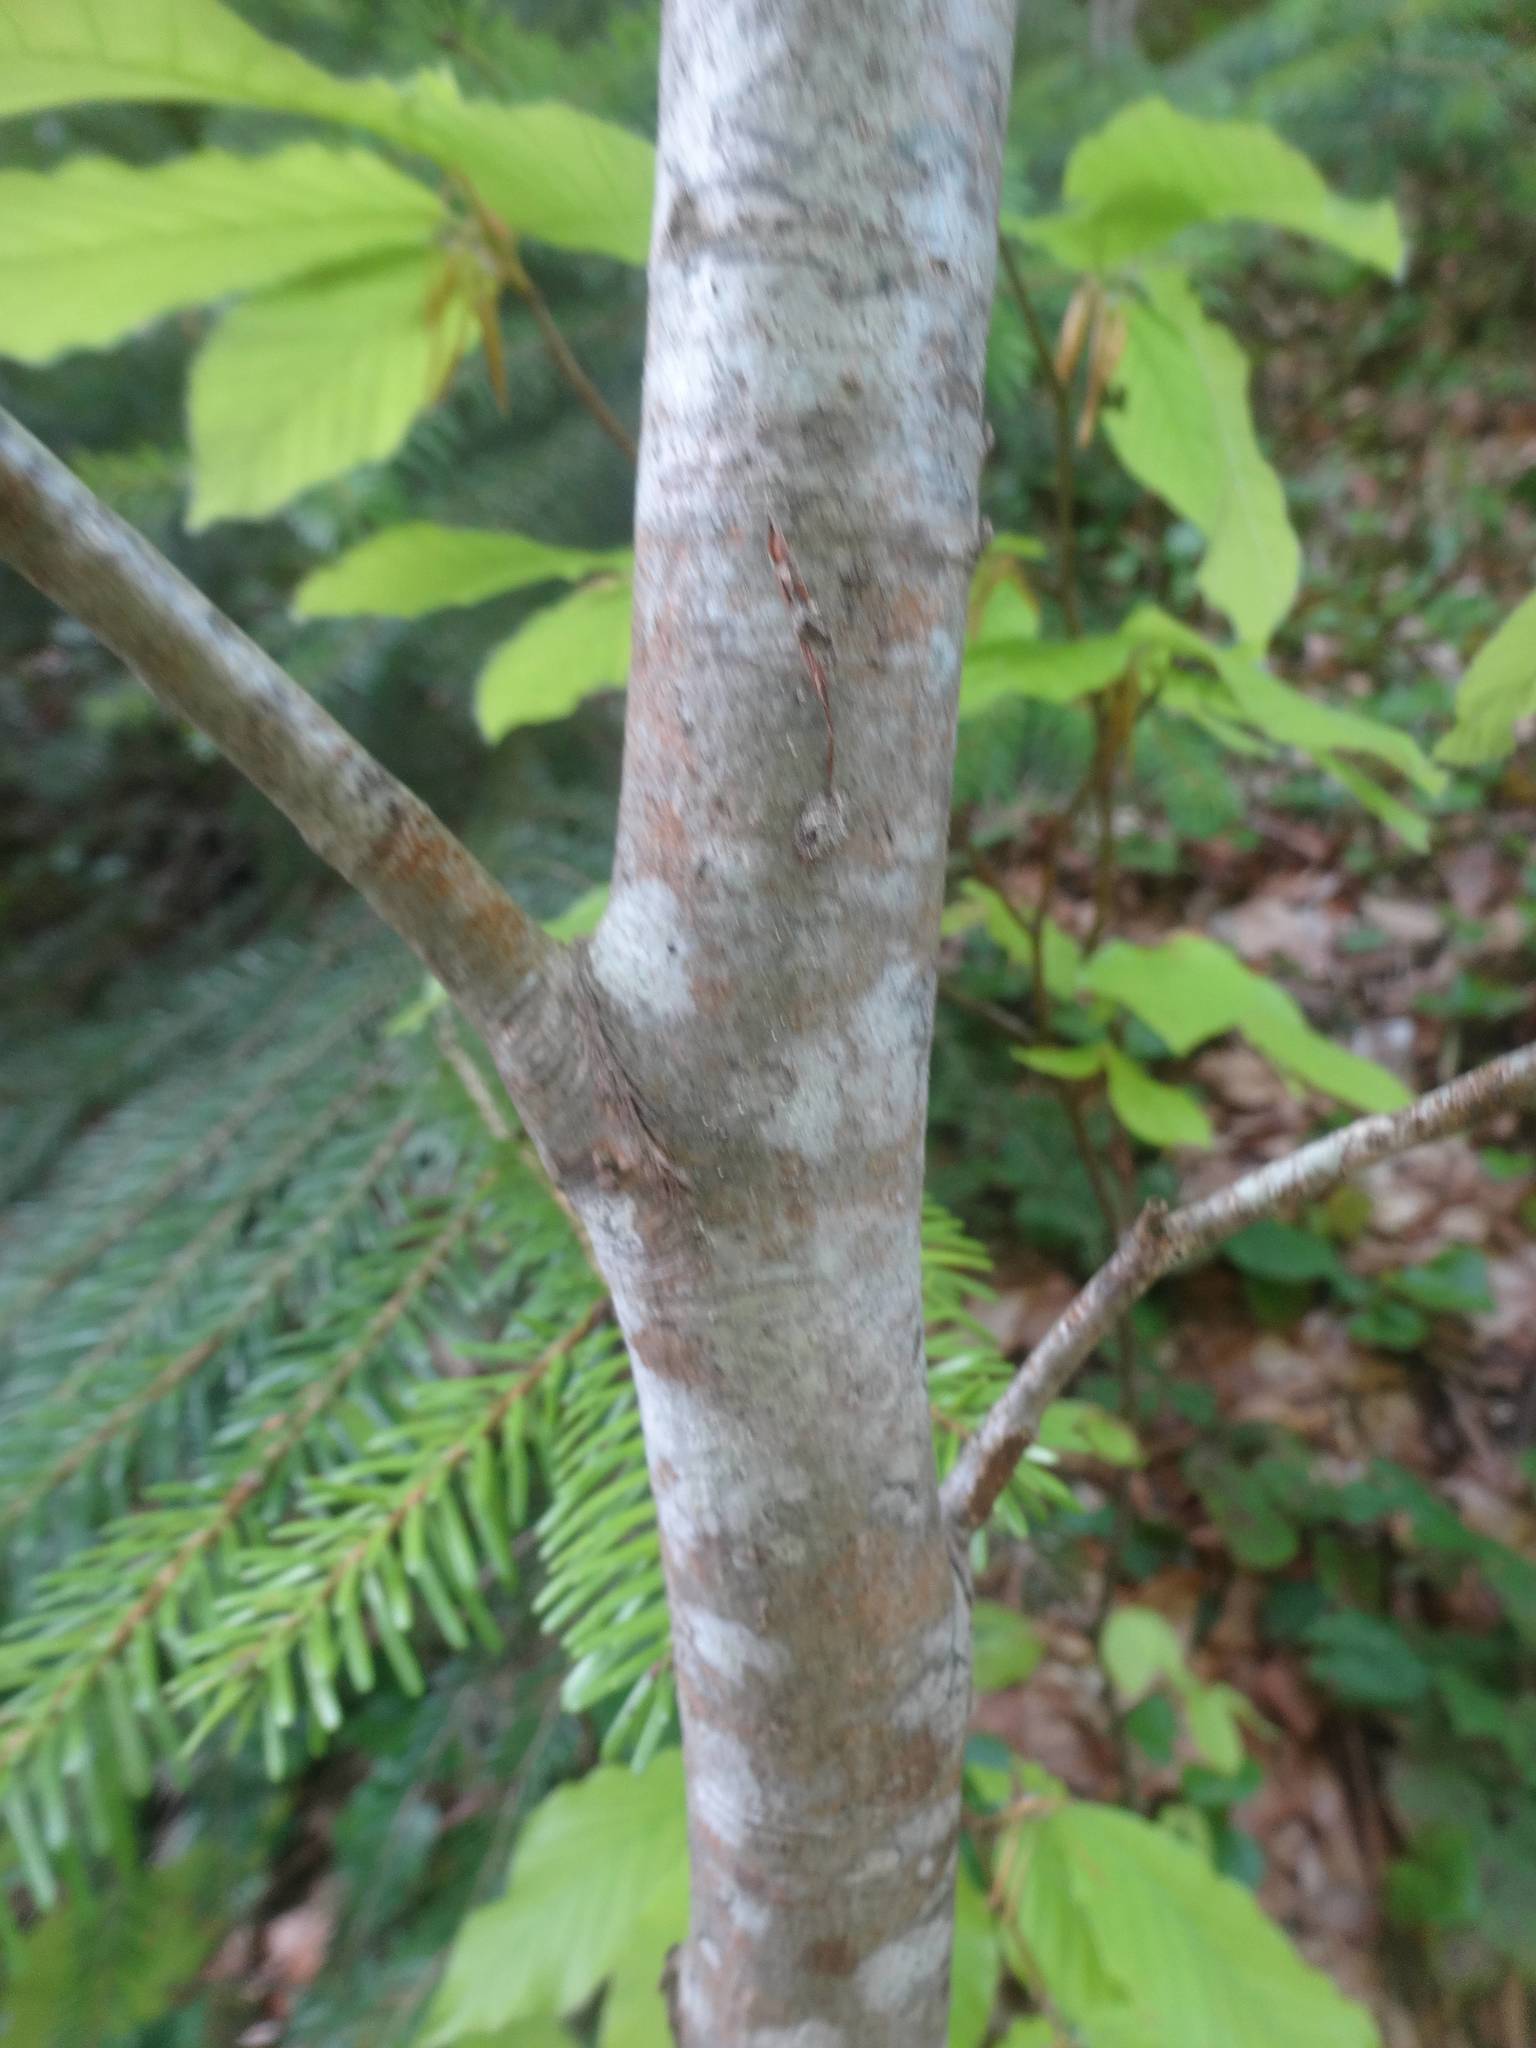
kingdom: Plantae
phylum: Tracheophyta
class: Magnoliopsida
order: Fagales
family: Fagaceae
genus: Fagus
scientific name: Fagus orientalis
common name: Oriental beech
